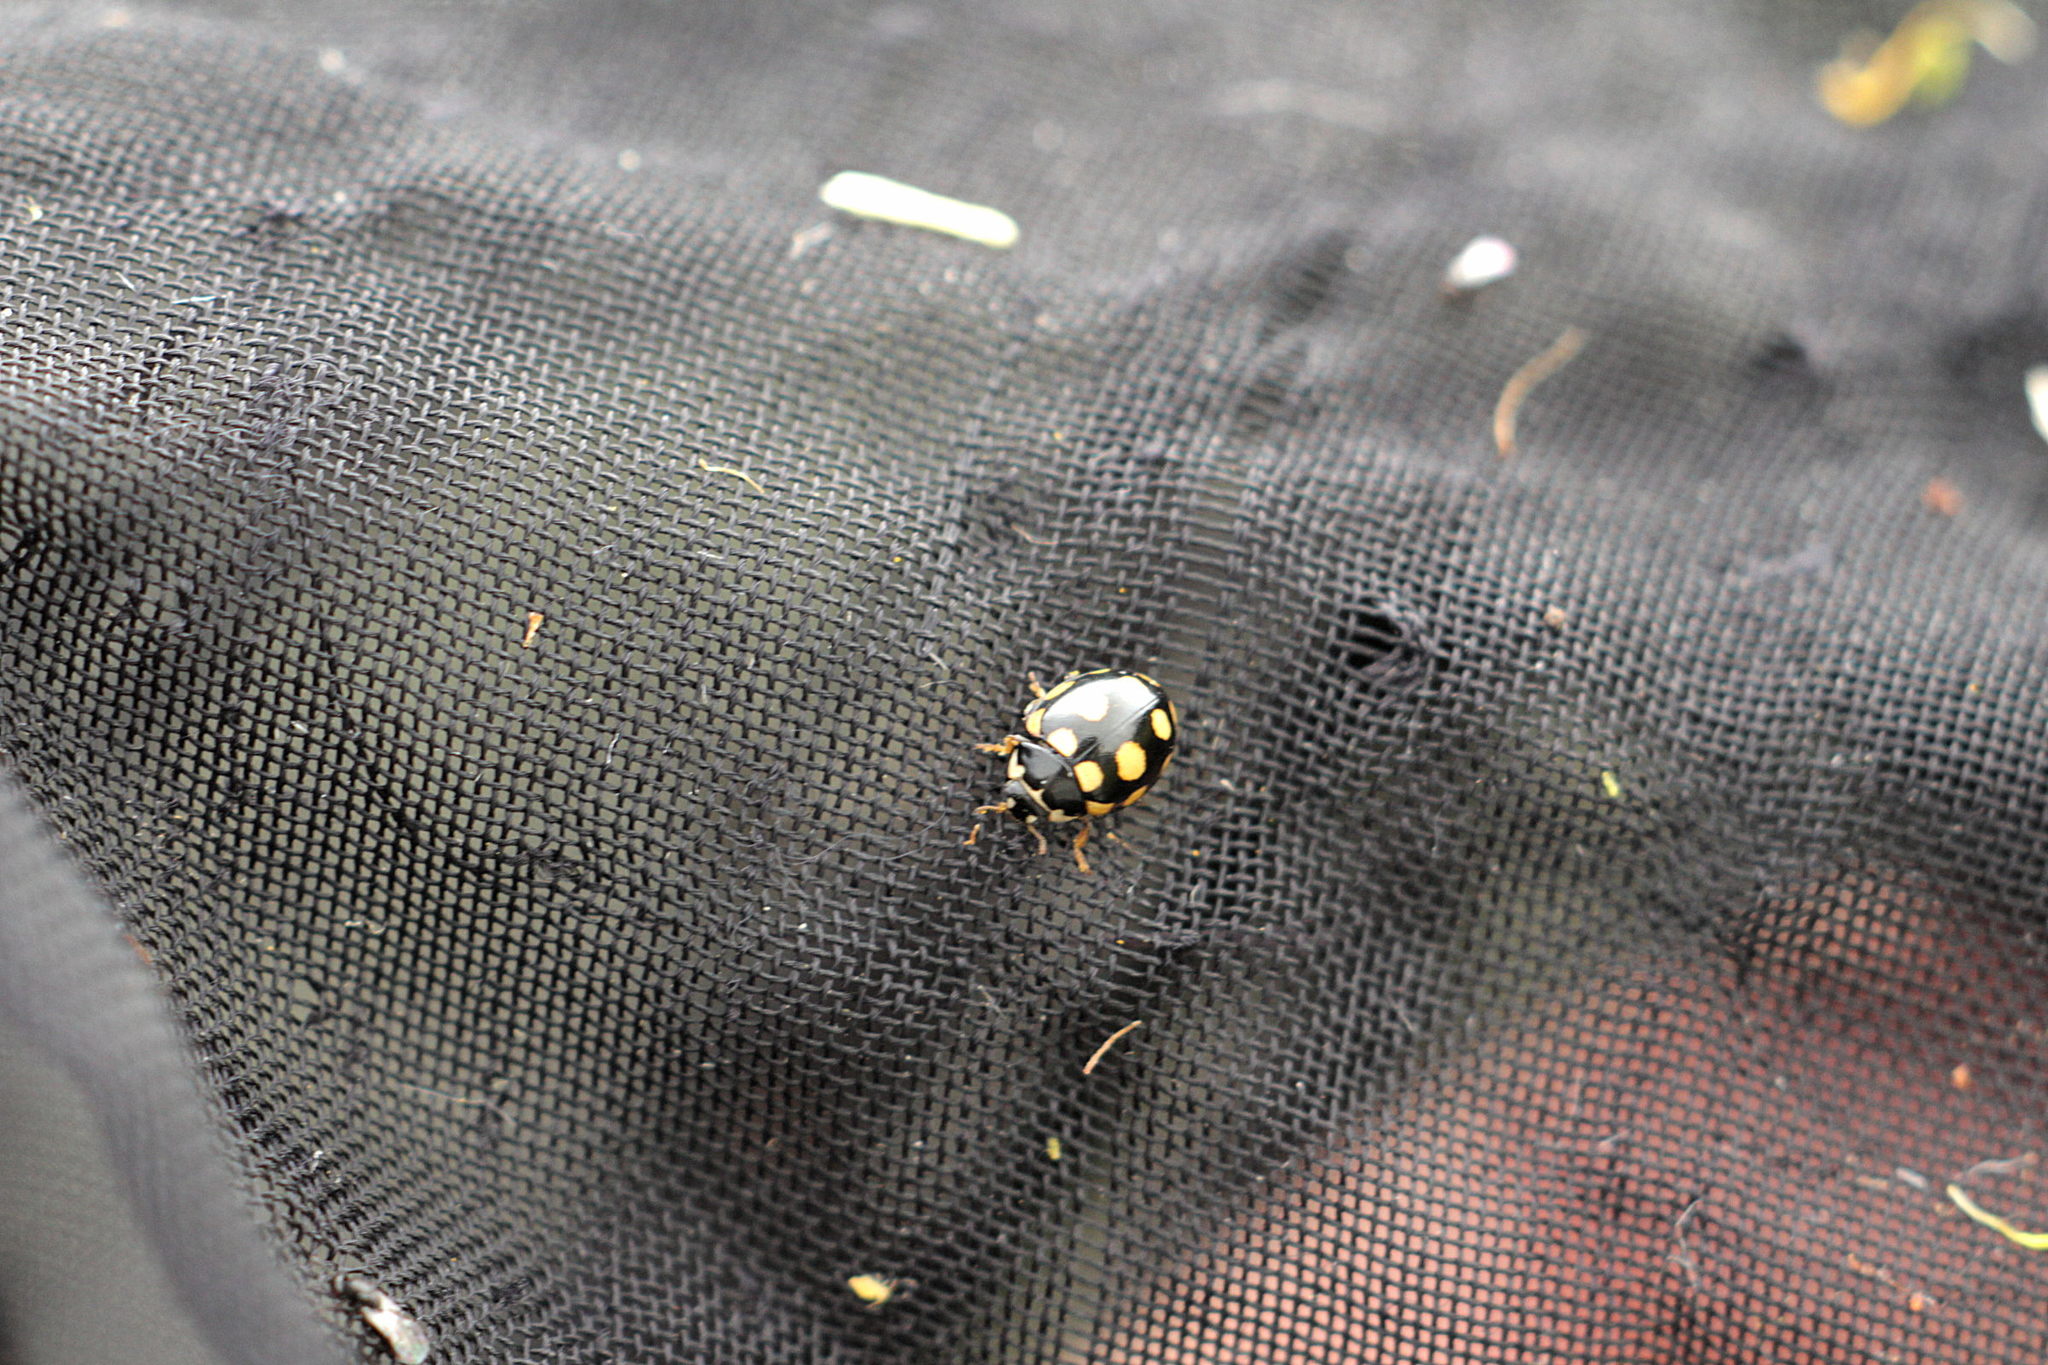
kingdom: Animalia
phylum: Arthropoda
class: Insecta
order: Coleoptera
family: Coccinellidae
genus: Coccinula
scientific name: Coccinula quatuordecimpustulata
